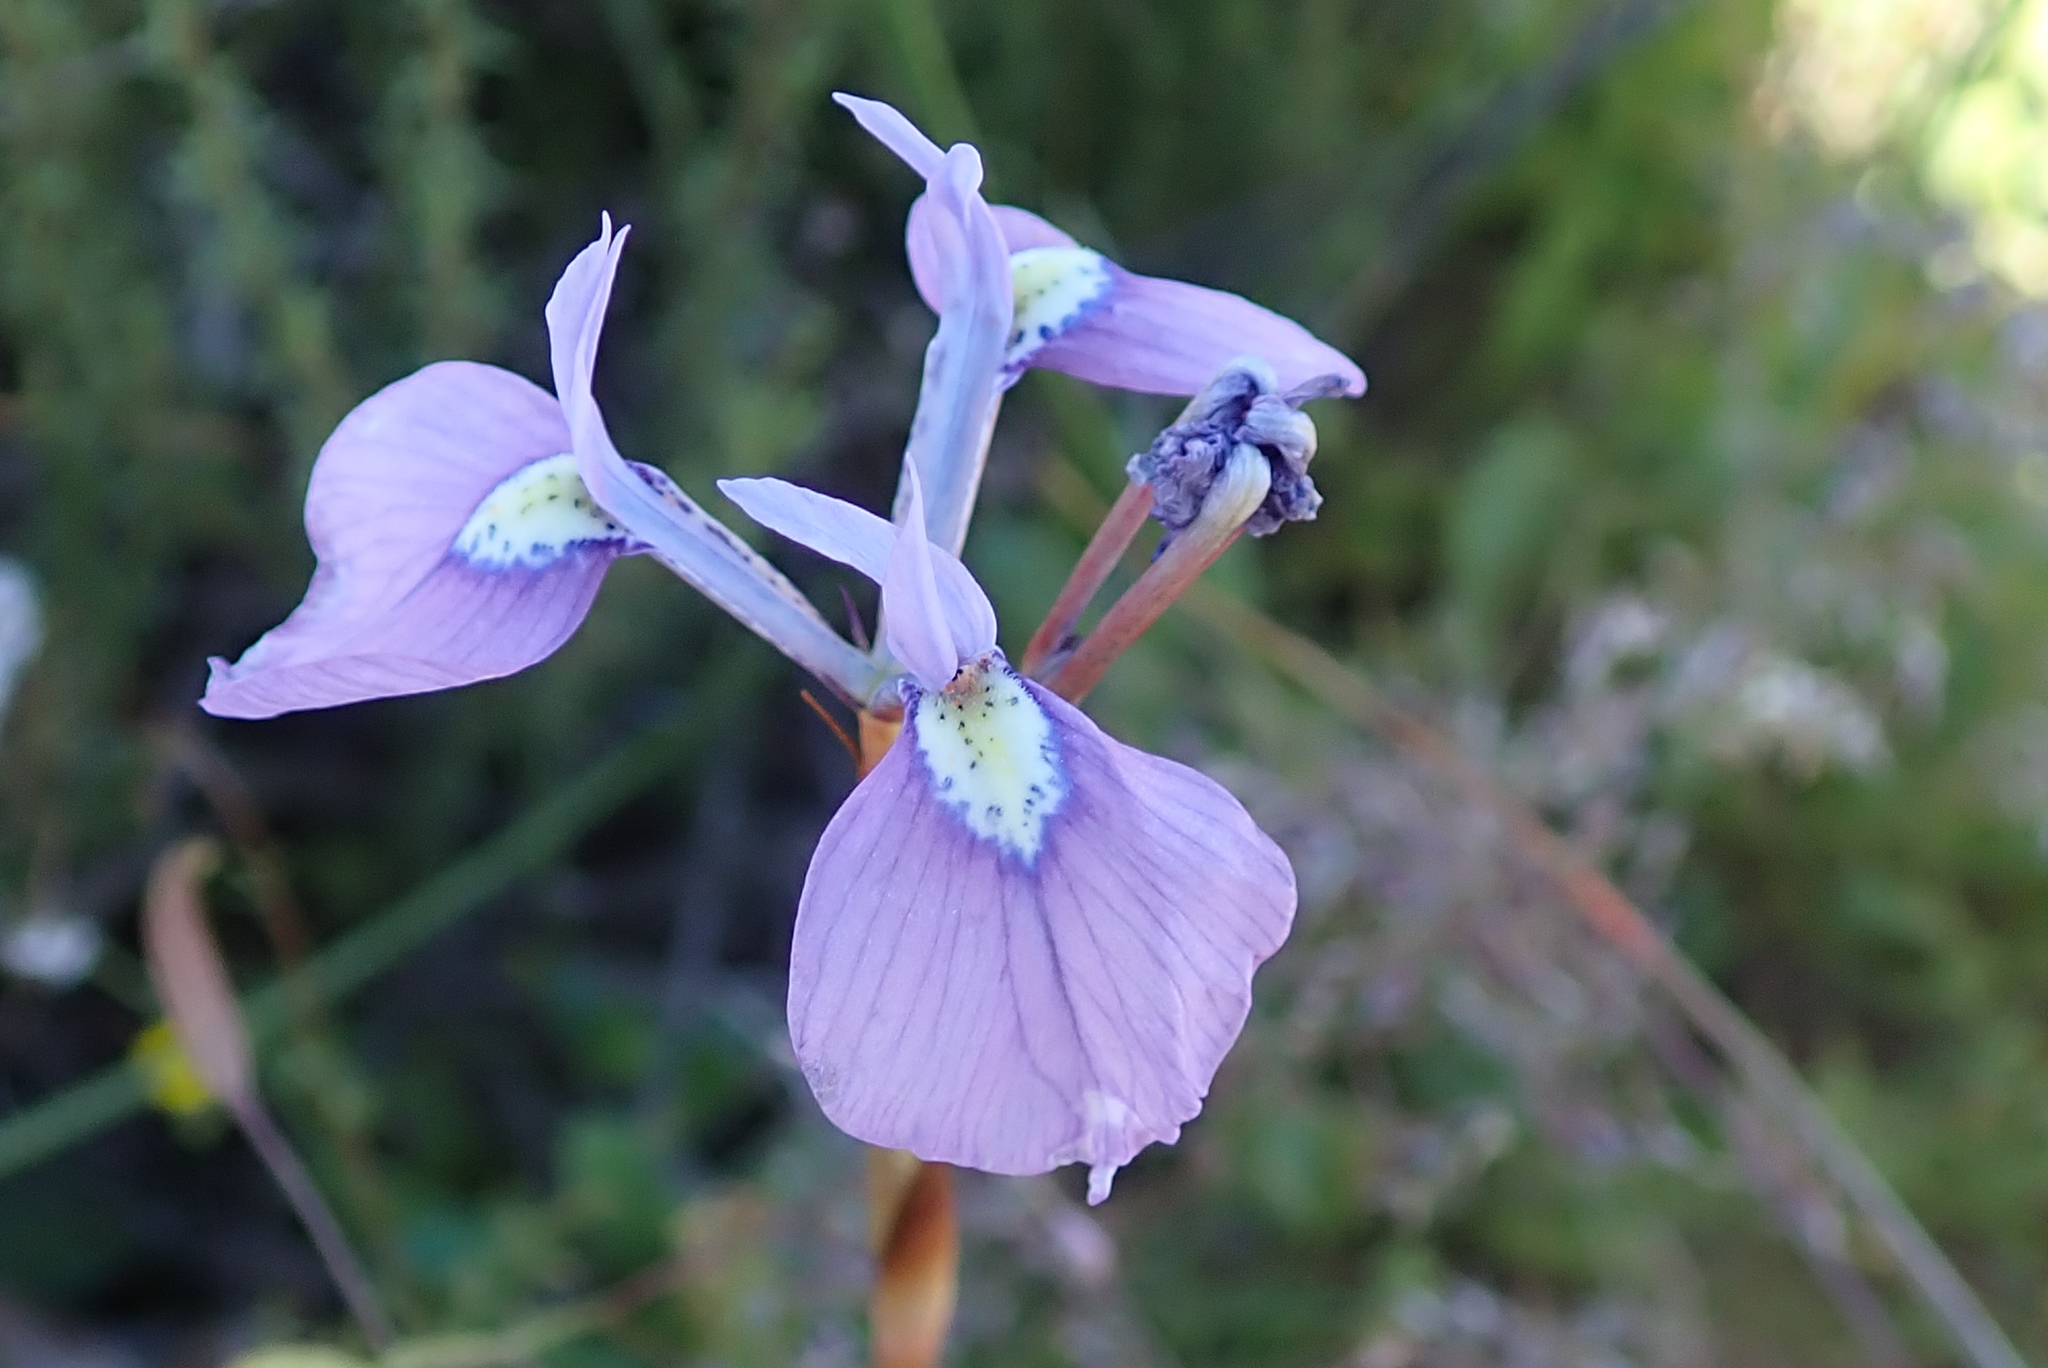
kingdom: Plantae
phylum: Tracheophyta
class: Liliopsida
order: Asparagales
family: Iridaceae
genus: Moraea
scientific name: Moraea tripetala
